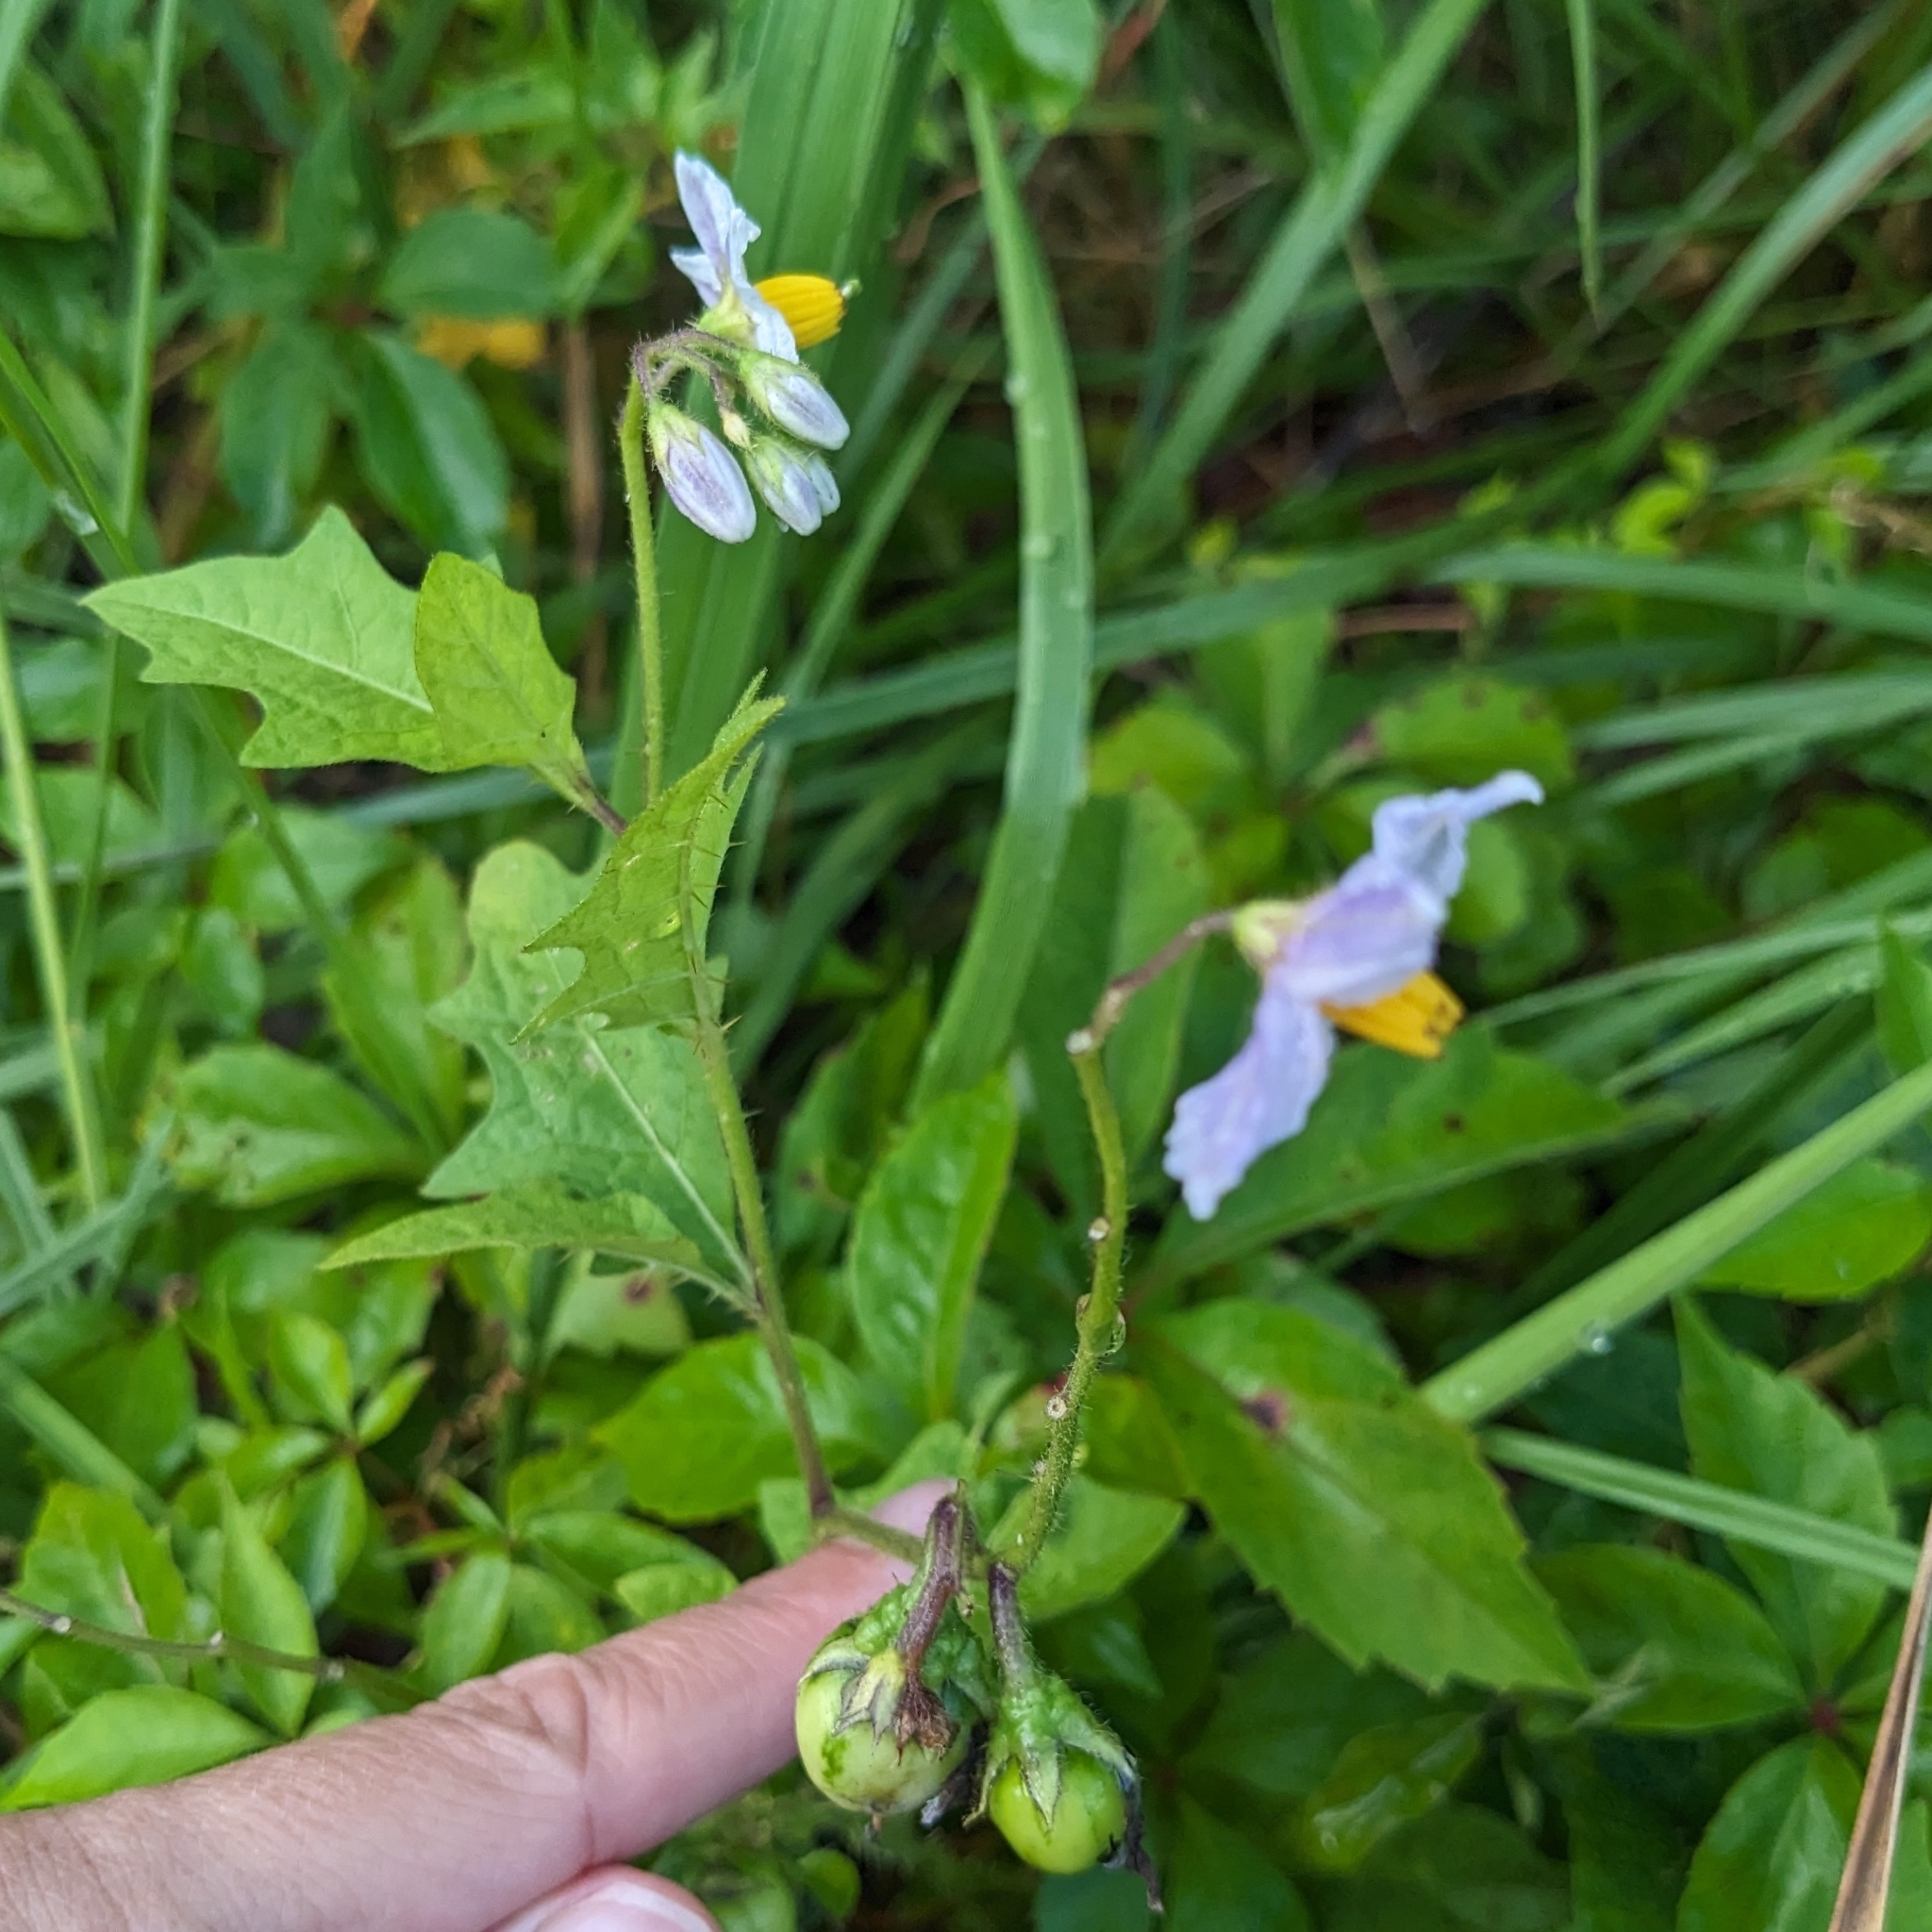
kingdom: Plantae
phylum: Tracheophyta
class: Magnoliopsida
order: Solanales
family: Solanaceae
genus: Solanum
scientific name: Solanum carolinense
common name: Horse-nettle
